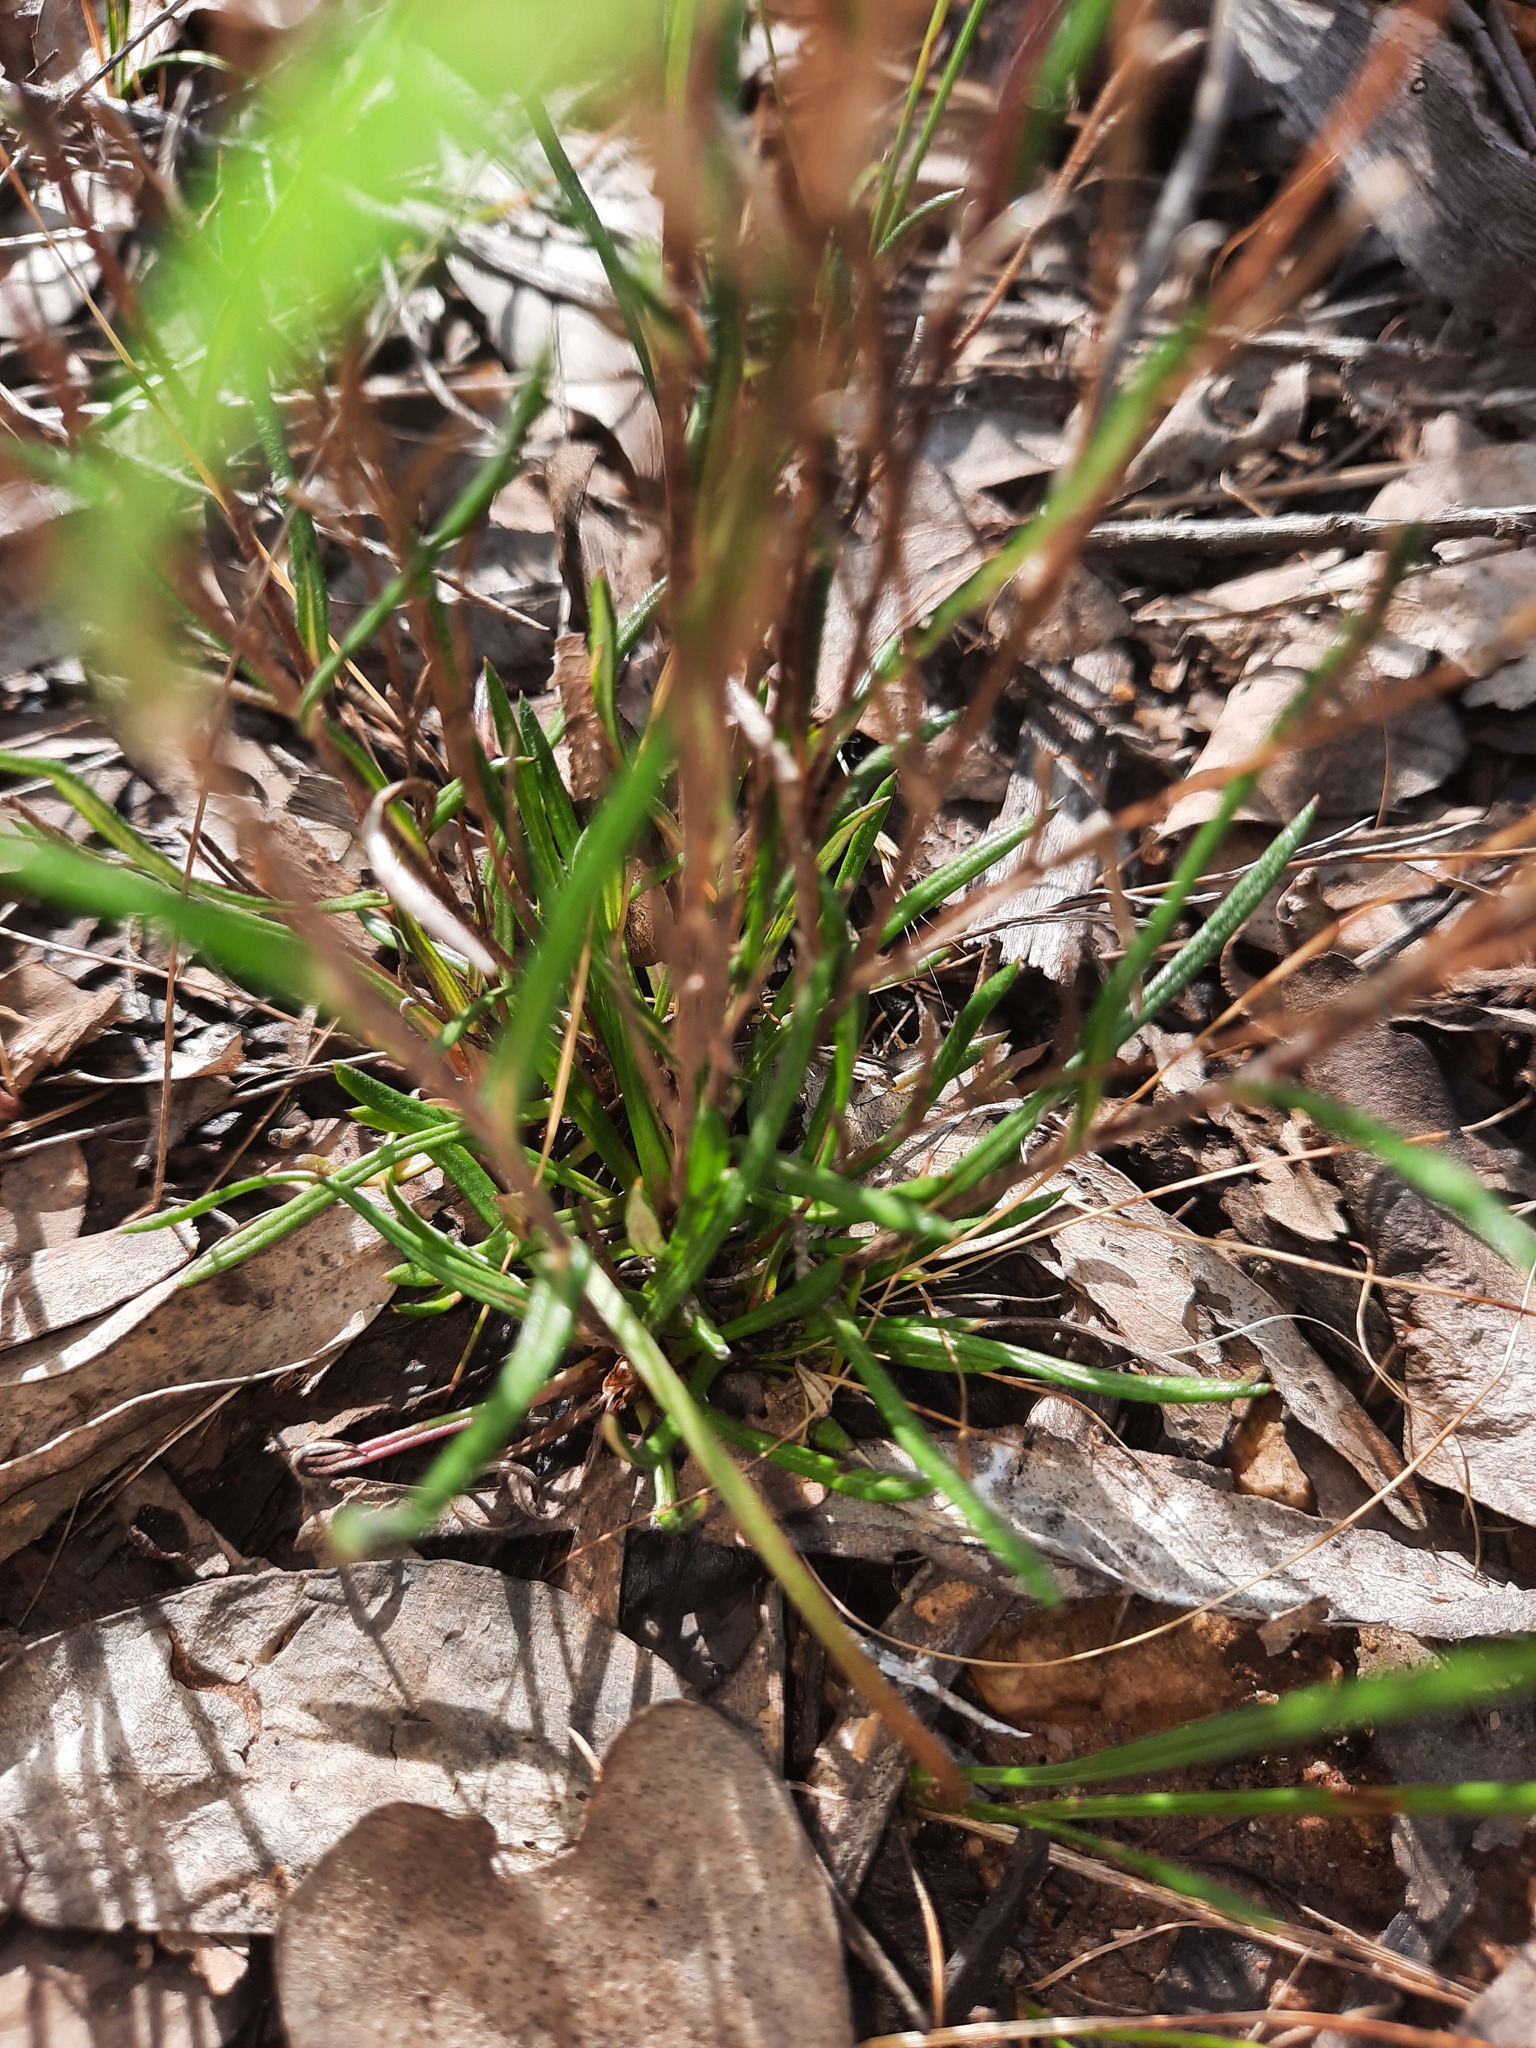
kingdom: Plantae
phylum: Tracheophyta
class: Magnoliopsida
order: Asterales
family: Asteraceae
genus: Leptorhynchos
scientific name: Leptorhynchos tenuifolius
